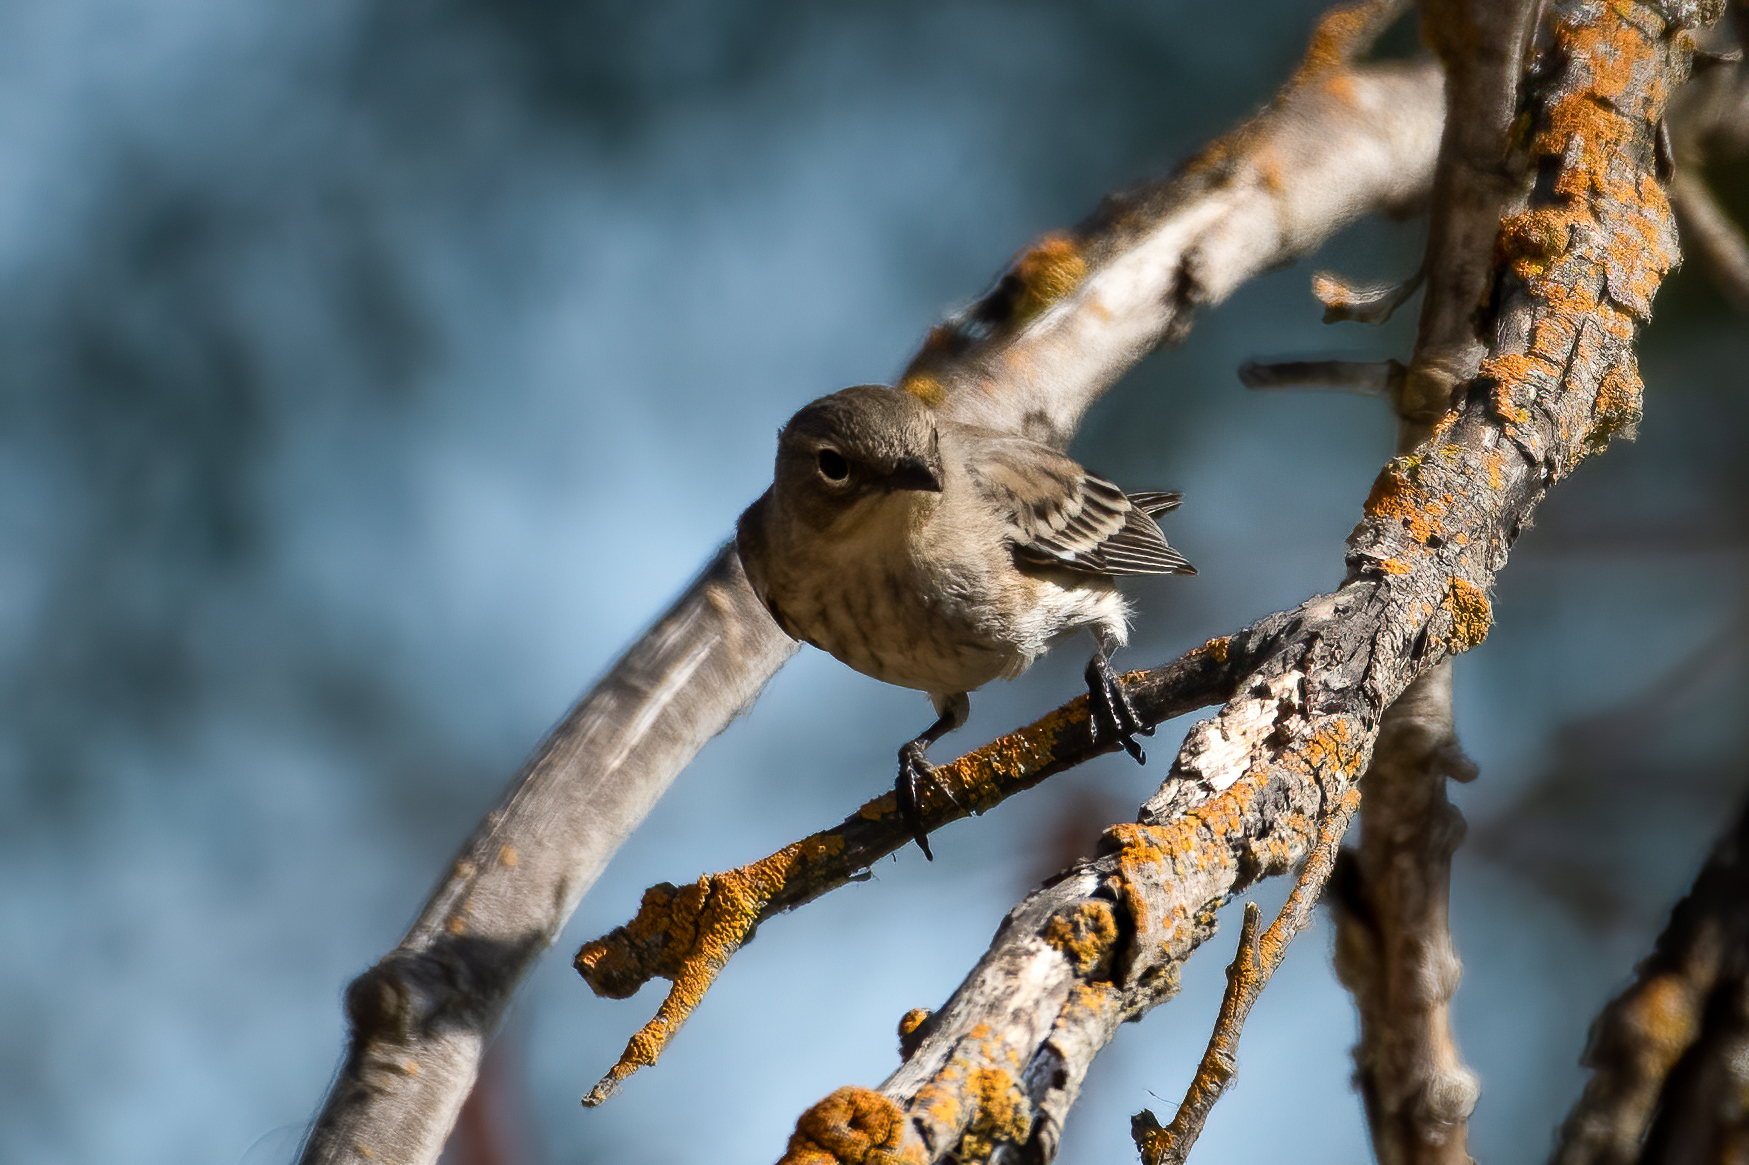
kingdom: Animalia
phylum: Chordata
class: Aves
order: Passeriformes
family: Parulidae
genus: Setophaga
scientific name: Setophaga coronata
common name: Myrtle warbler
